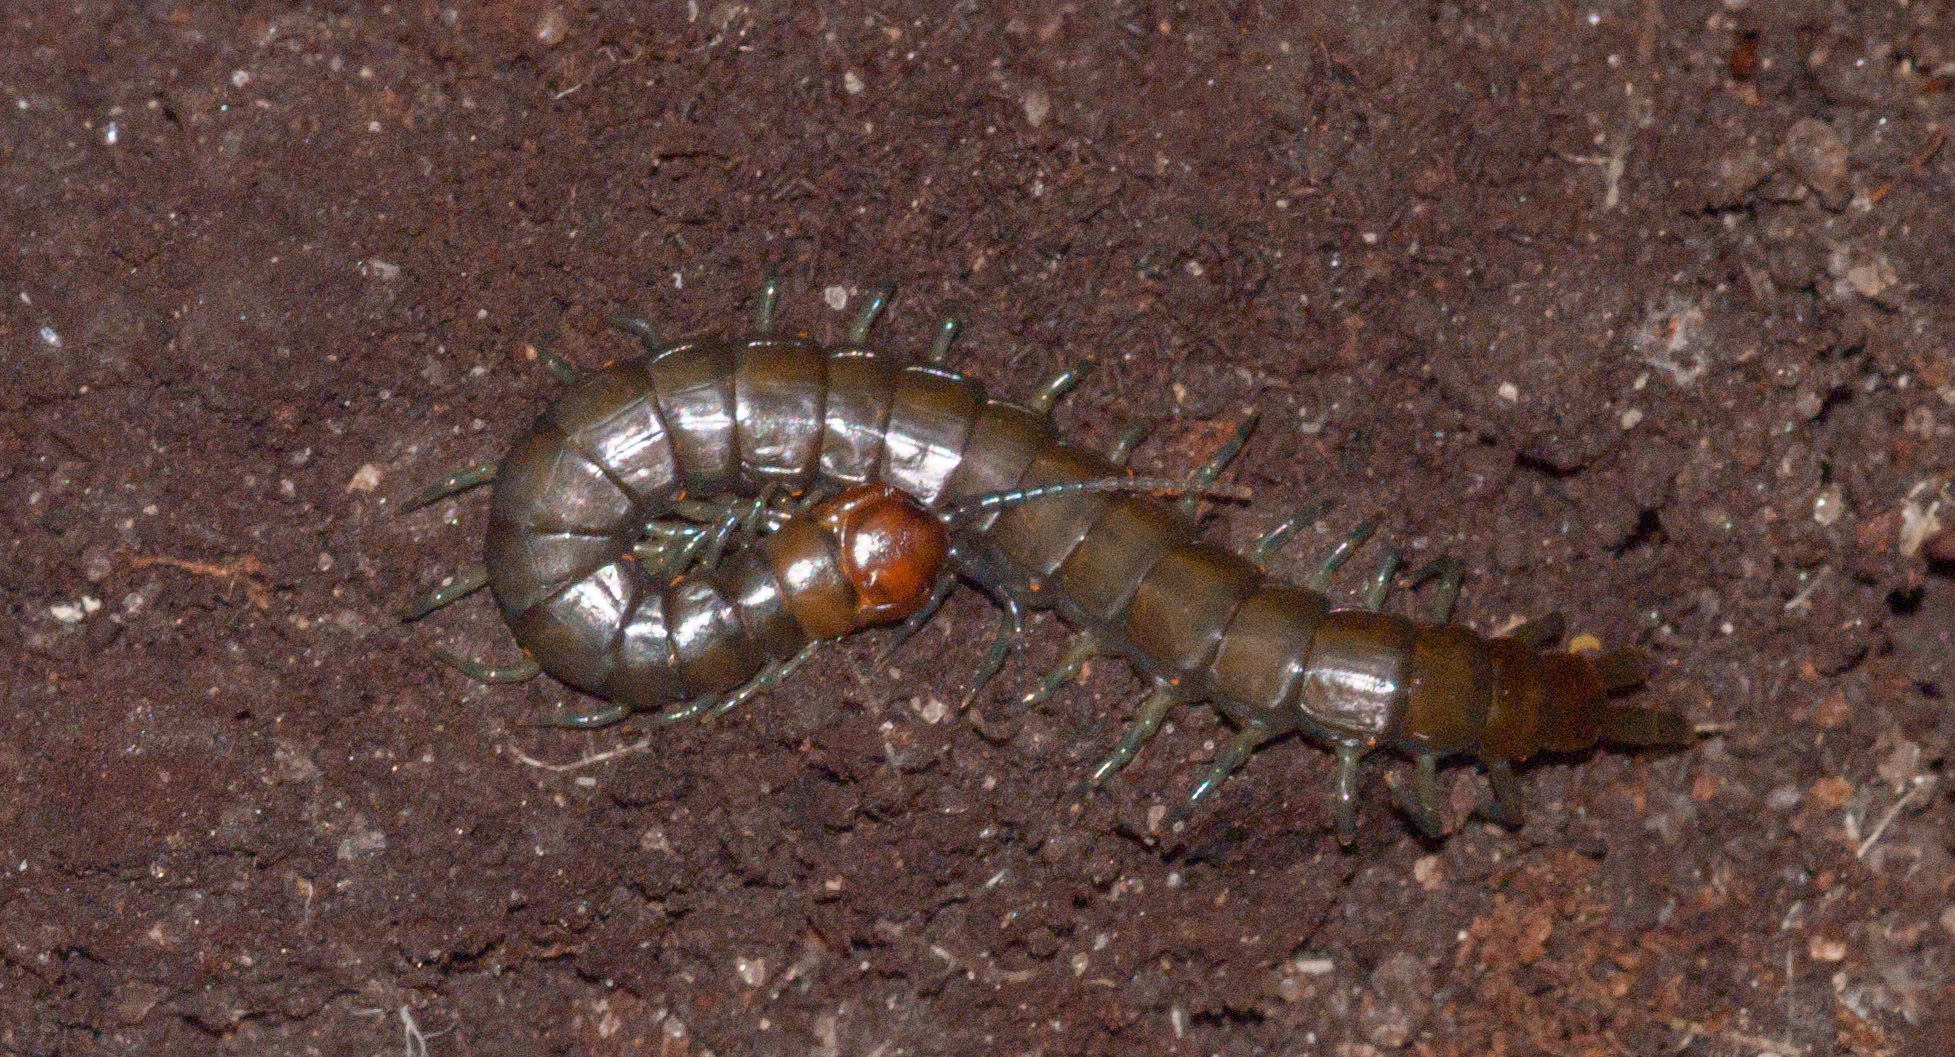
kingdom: Animalia
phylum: Arthropoda
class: Chilopoda
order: Scolopendromorpha
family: Scolopendridae
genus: Cormocephalus
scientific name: Cormocephalus esulcatus
